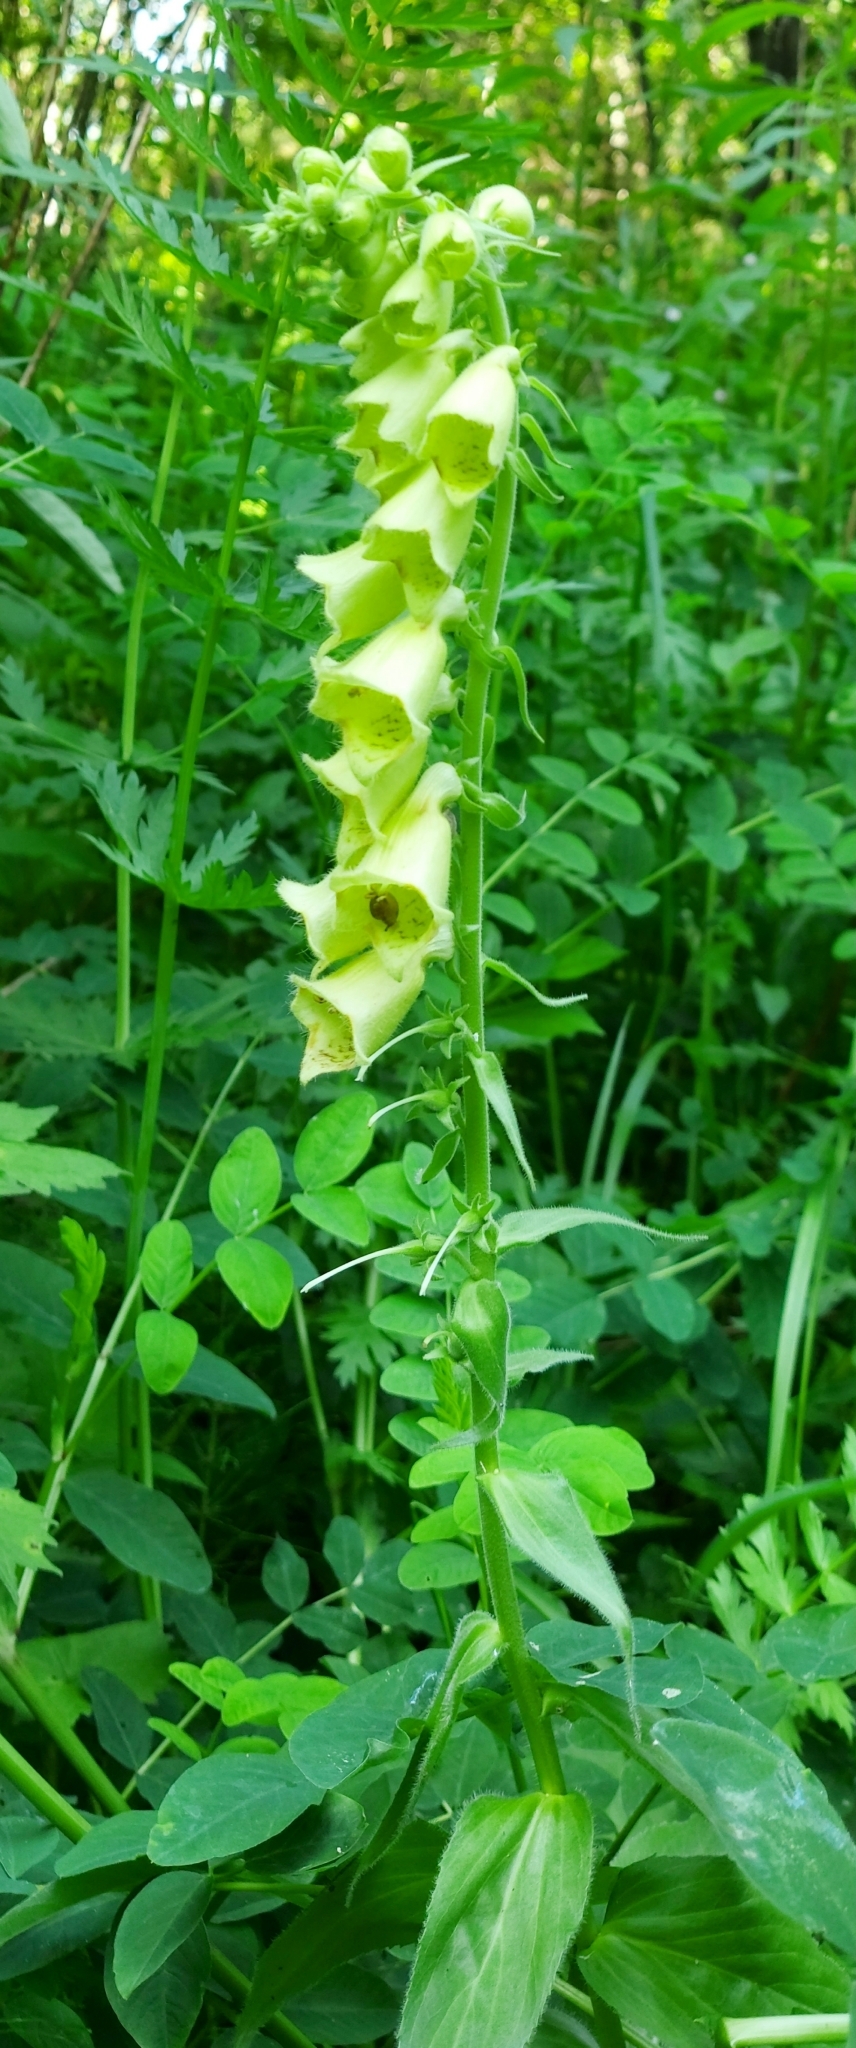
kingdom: Plantae
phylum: Tracheophyta
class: Magnoliopsida
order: Lamiales
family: Plantaginaceae
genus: Digitalis
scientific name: Digitalis grandiflora
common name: Yellow foxglove
